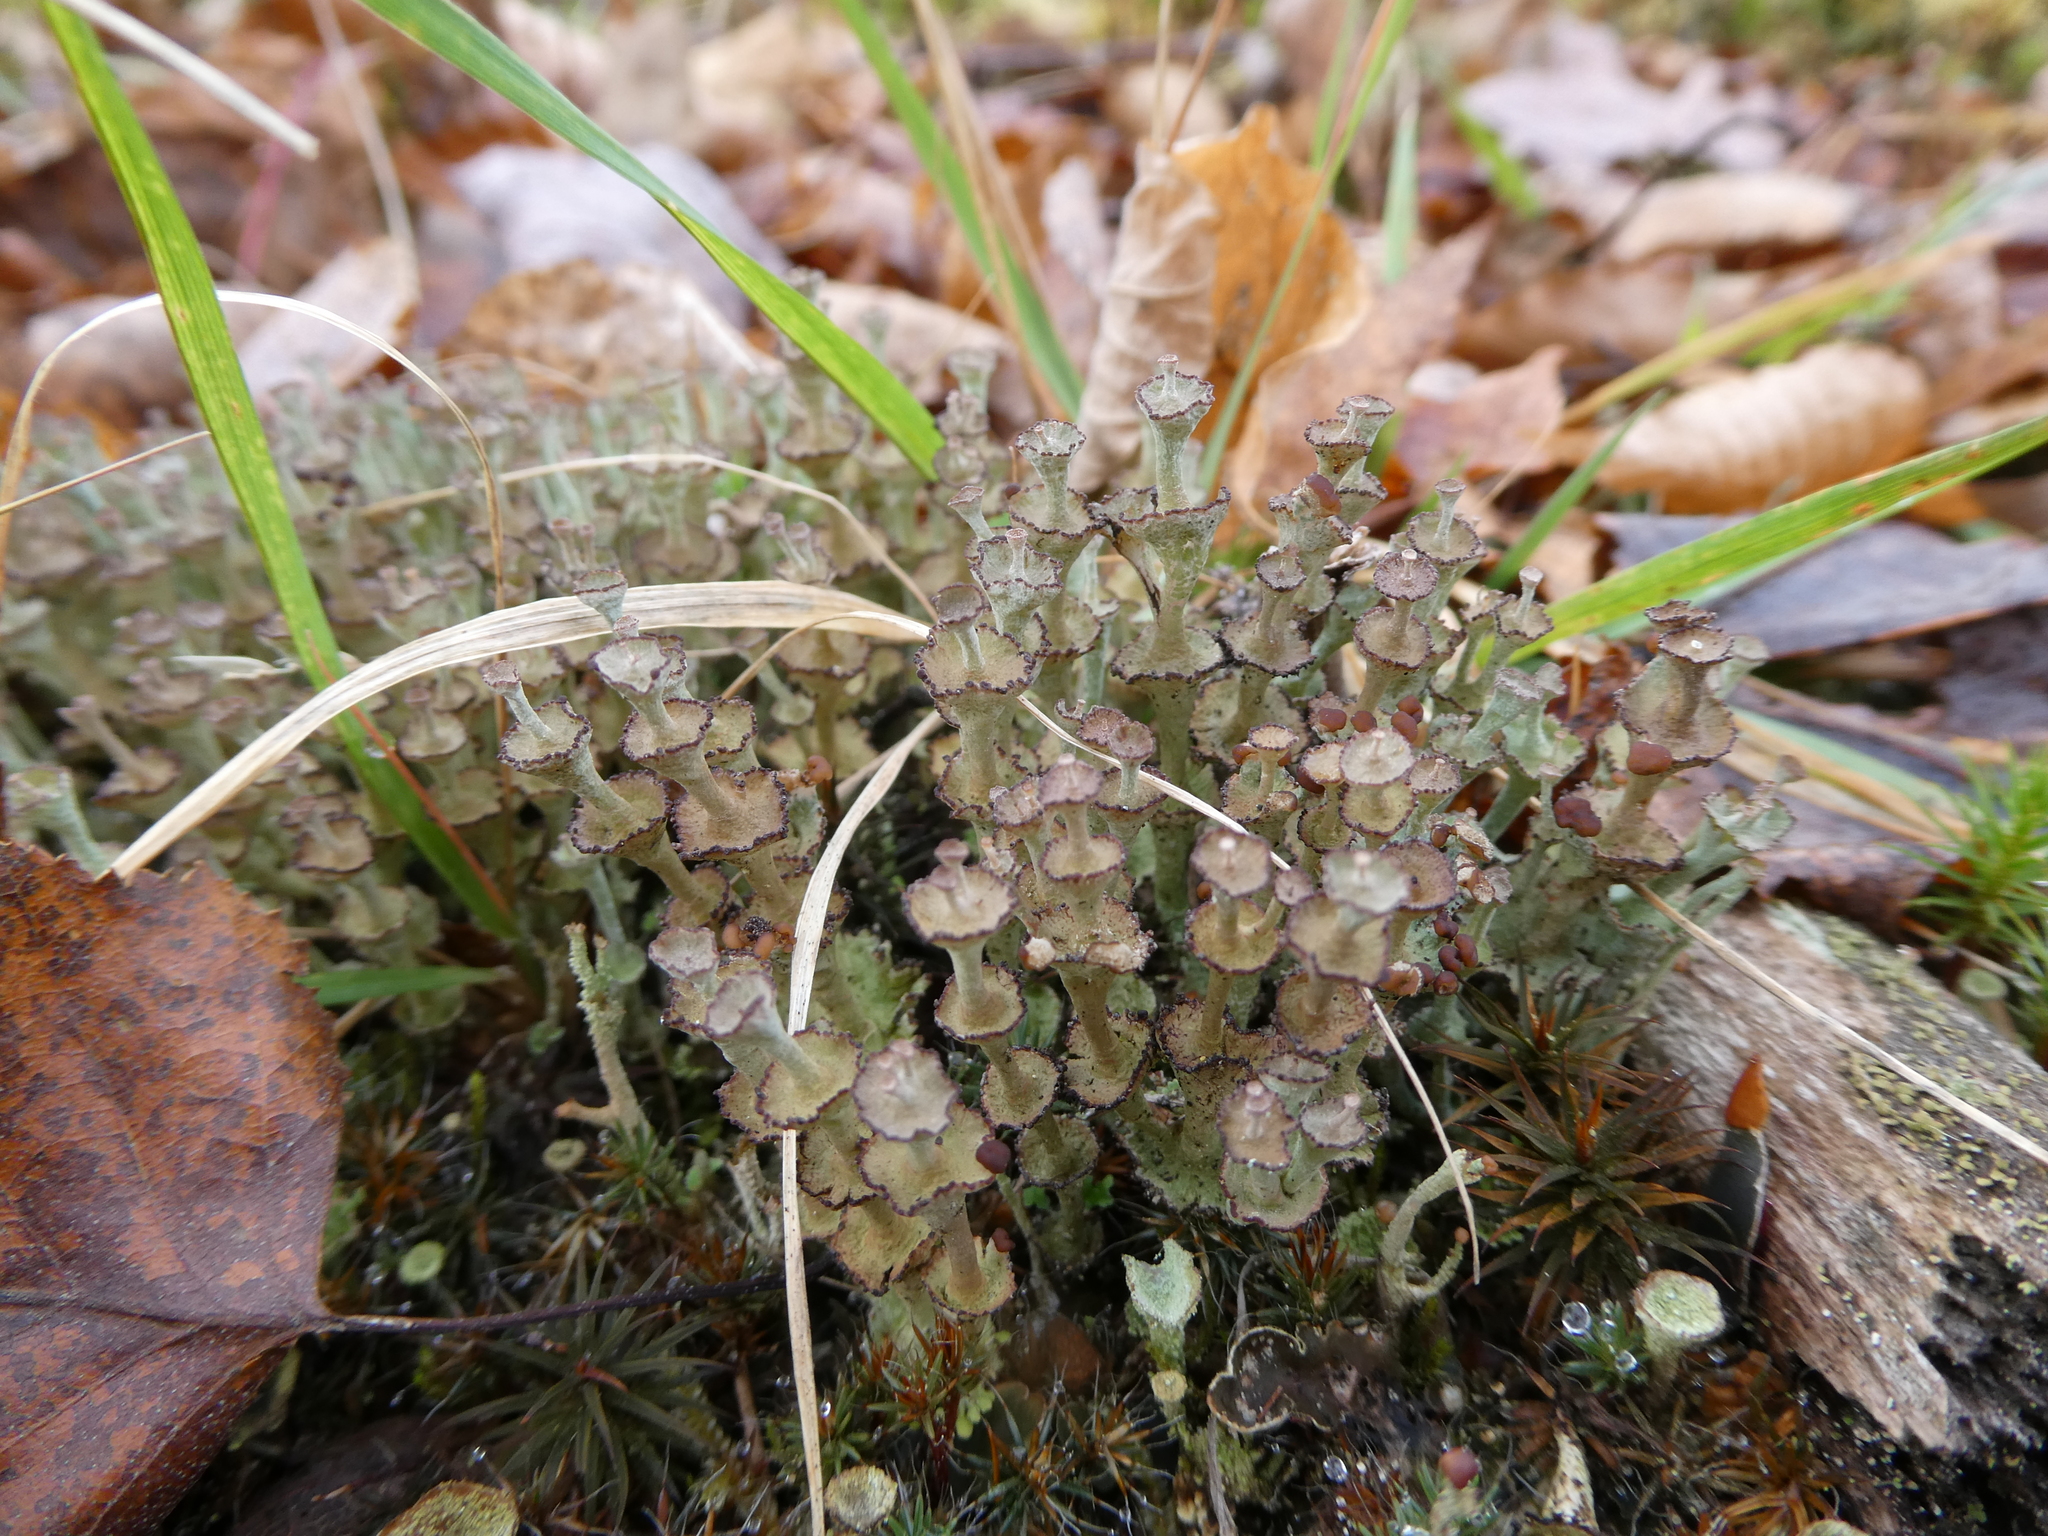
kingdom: Fungi
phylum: Ascomycota
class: Lecanoromycetes
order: Lecanorales
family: Cladoniaceae
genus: Cladonia
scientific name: Cladonia cervicornis
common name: Browned pixie-cup lichen
